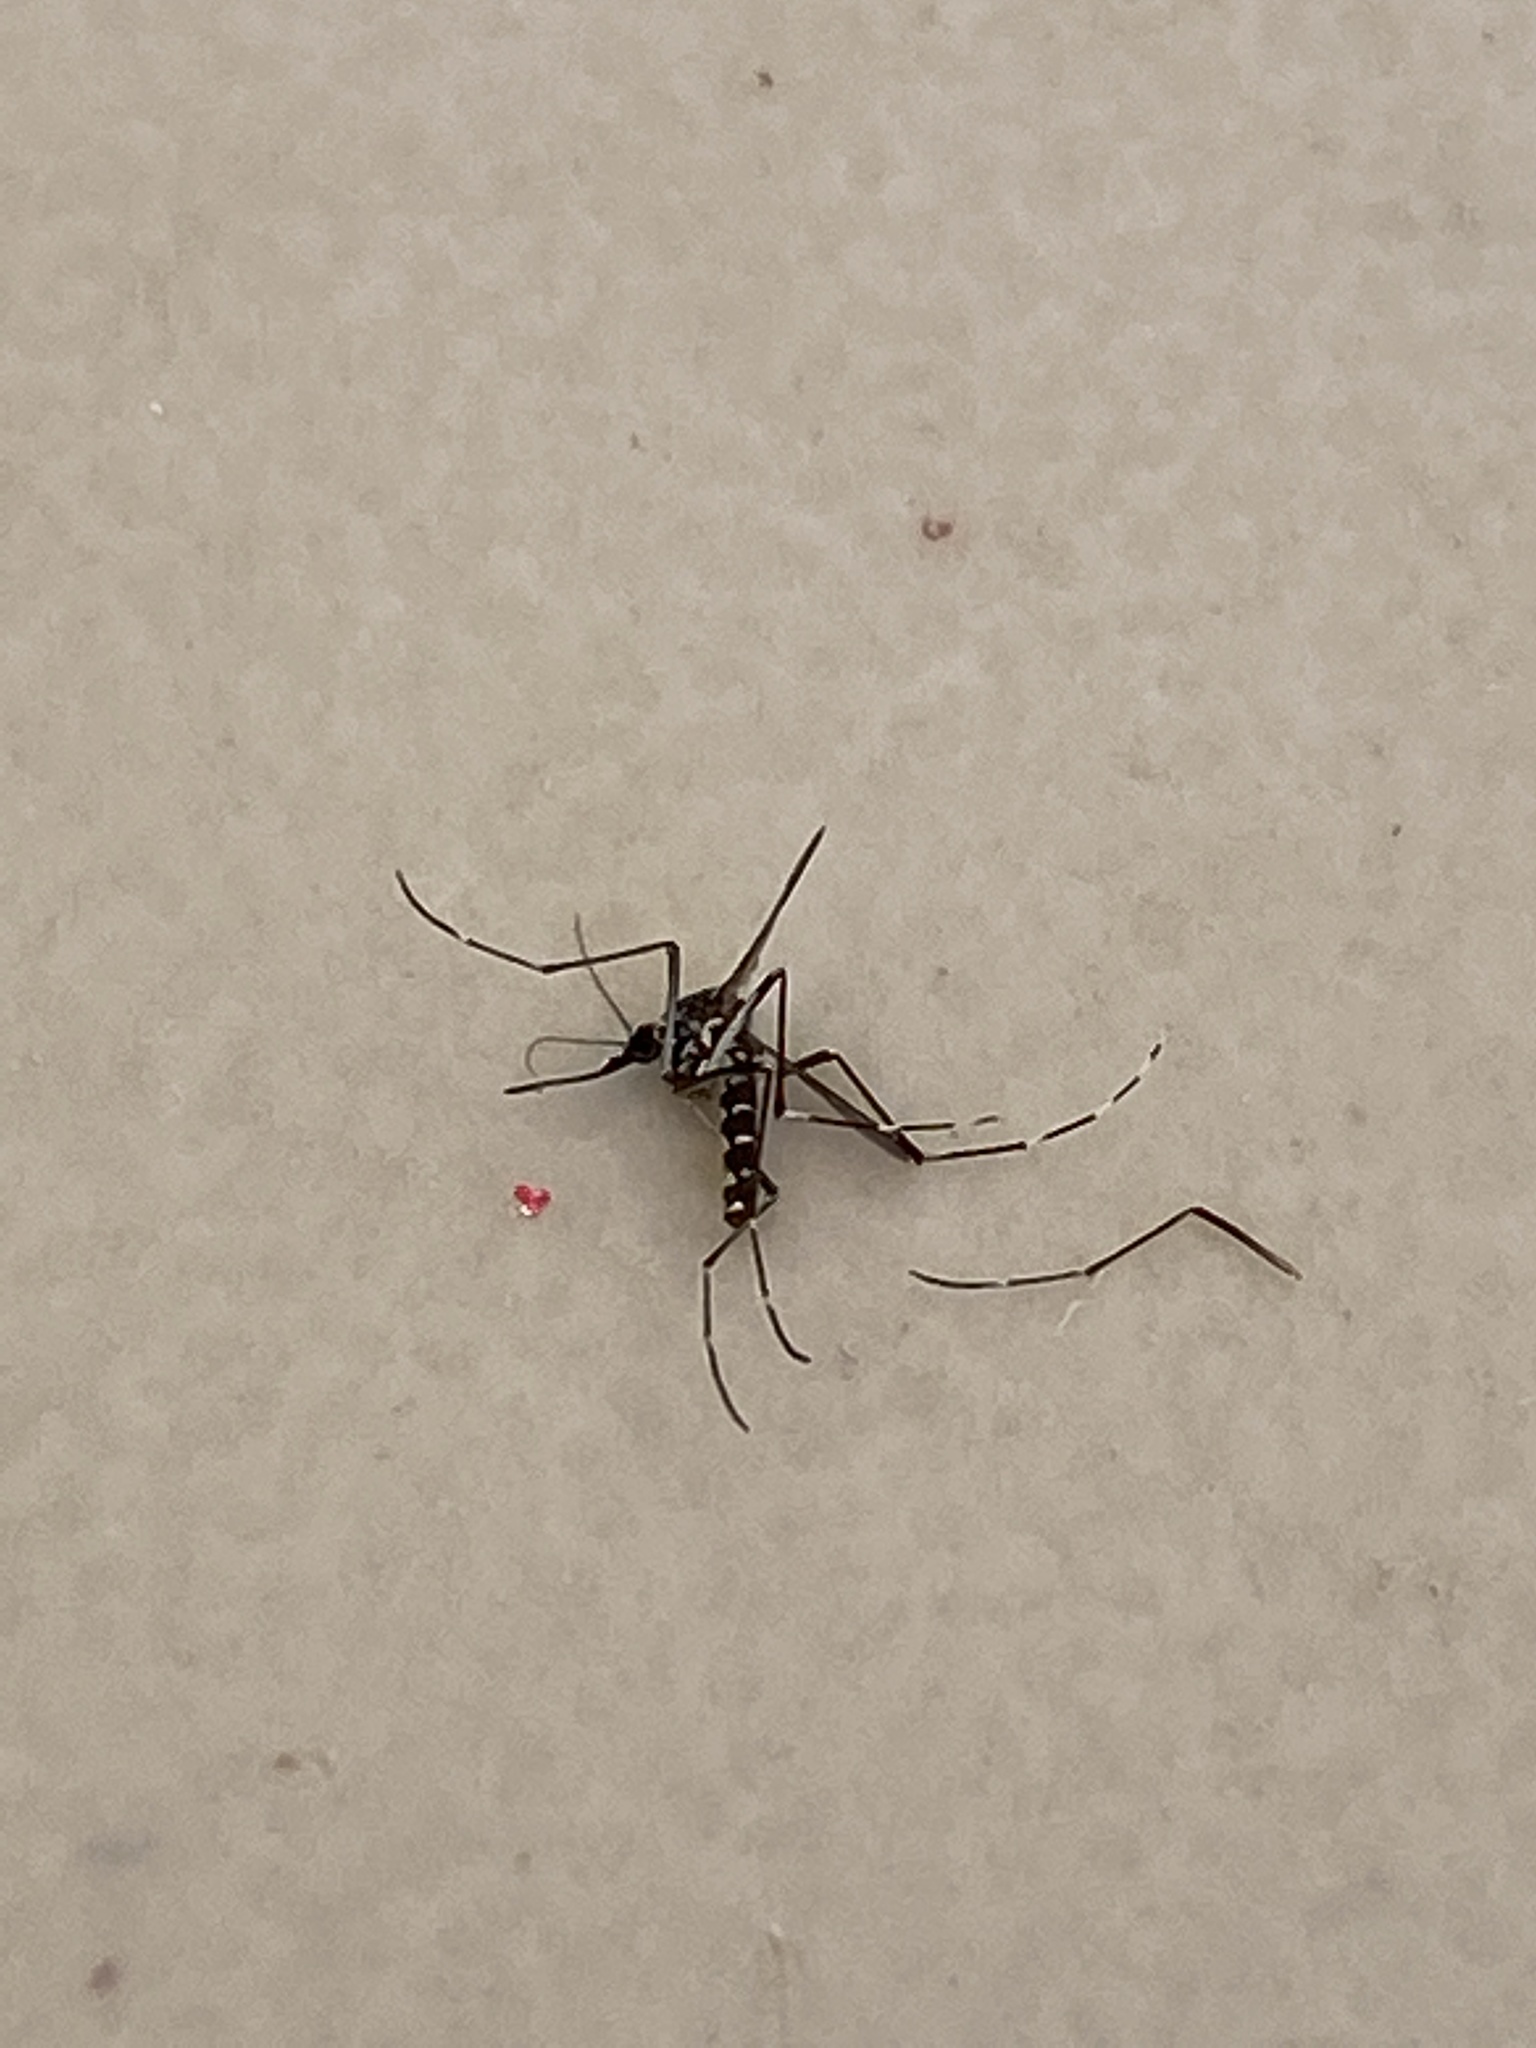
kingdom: Animalia
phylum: Arthropoda
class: Insecta
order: Diptera
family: Culicidae
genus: Aedes
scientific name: Aedes albopictus
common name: Tiger mosquito
